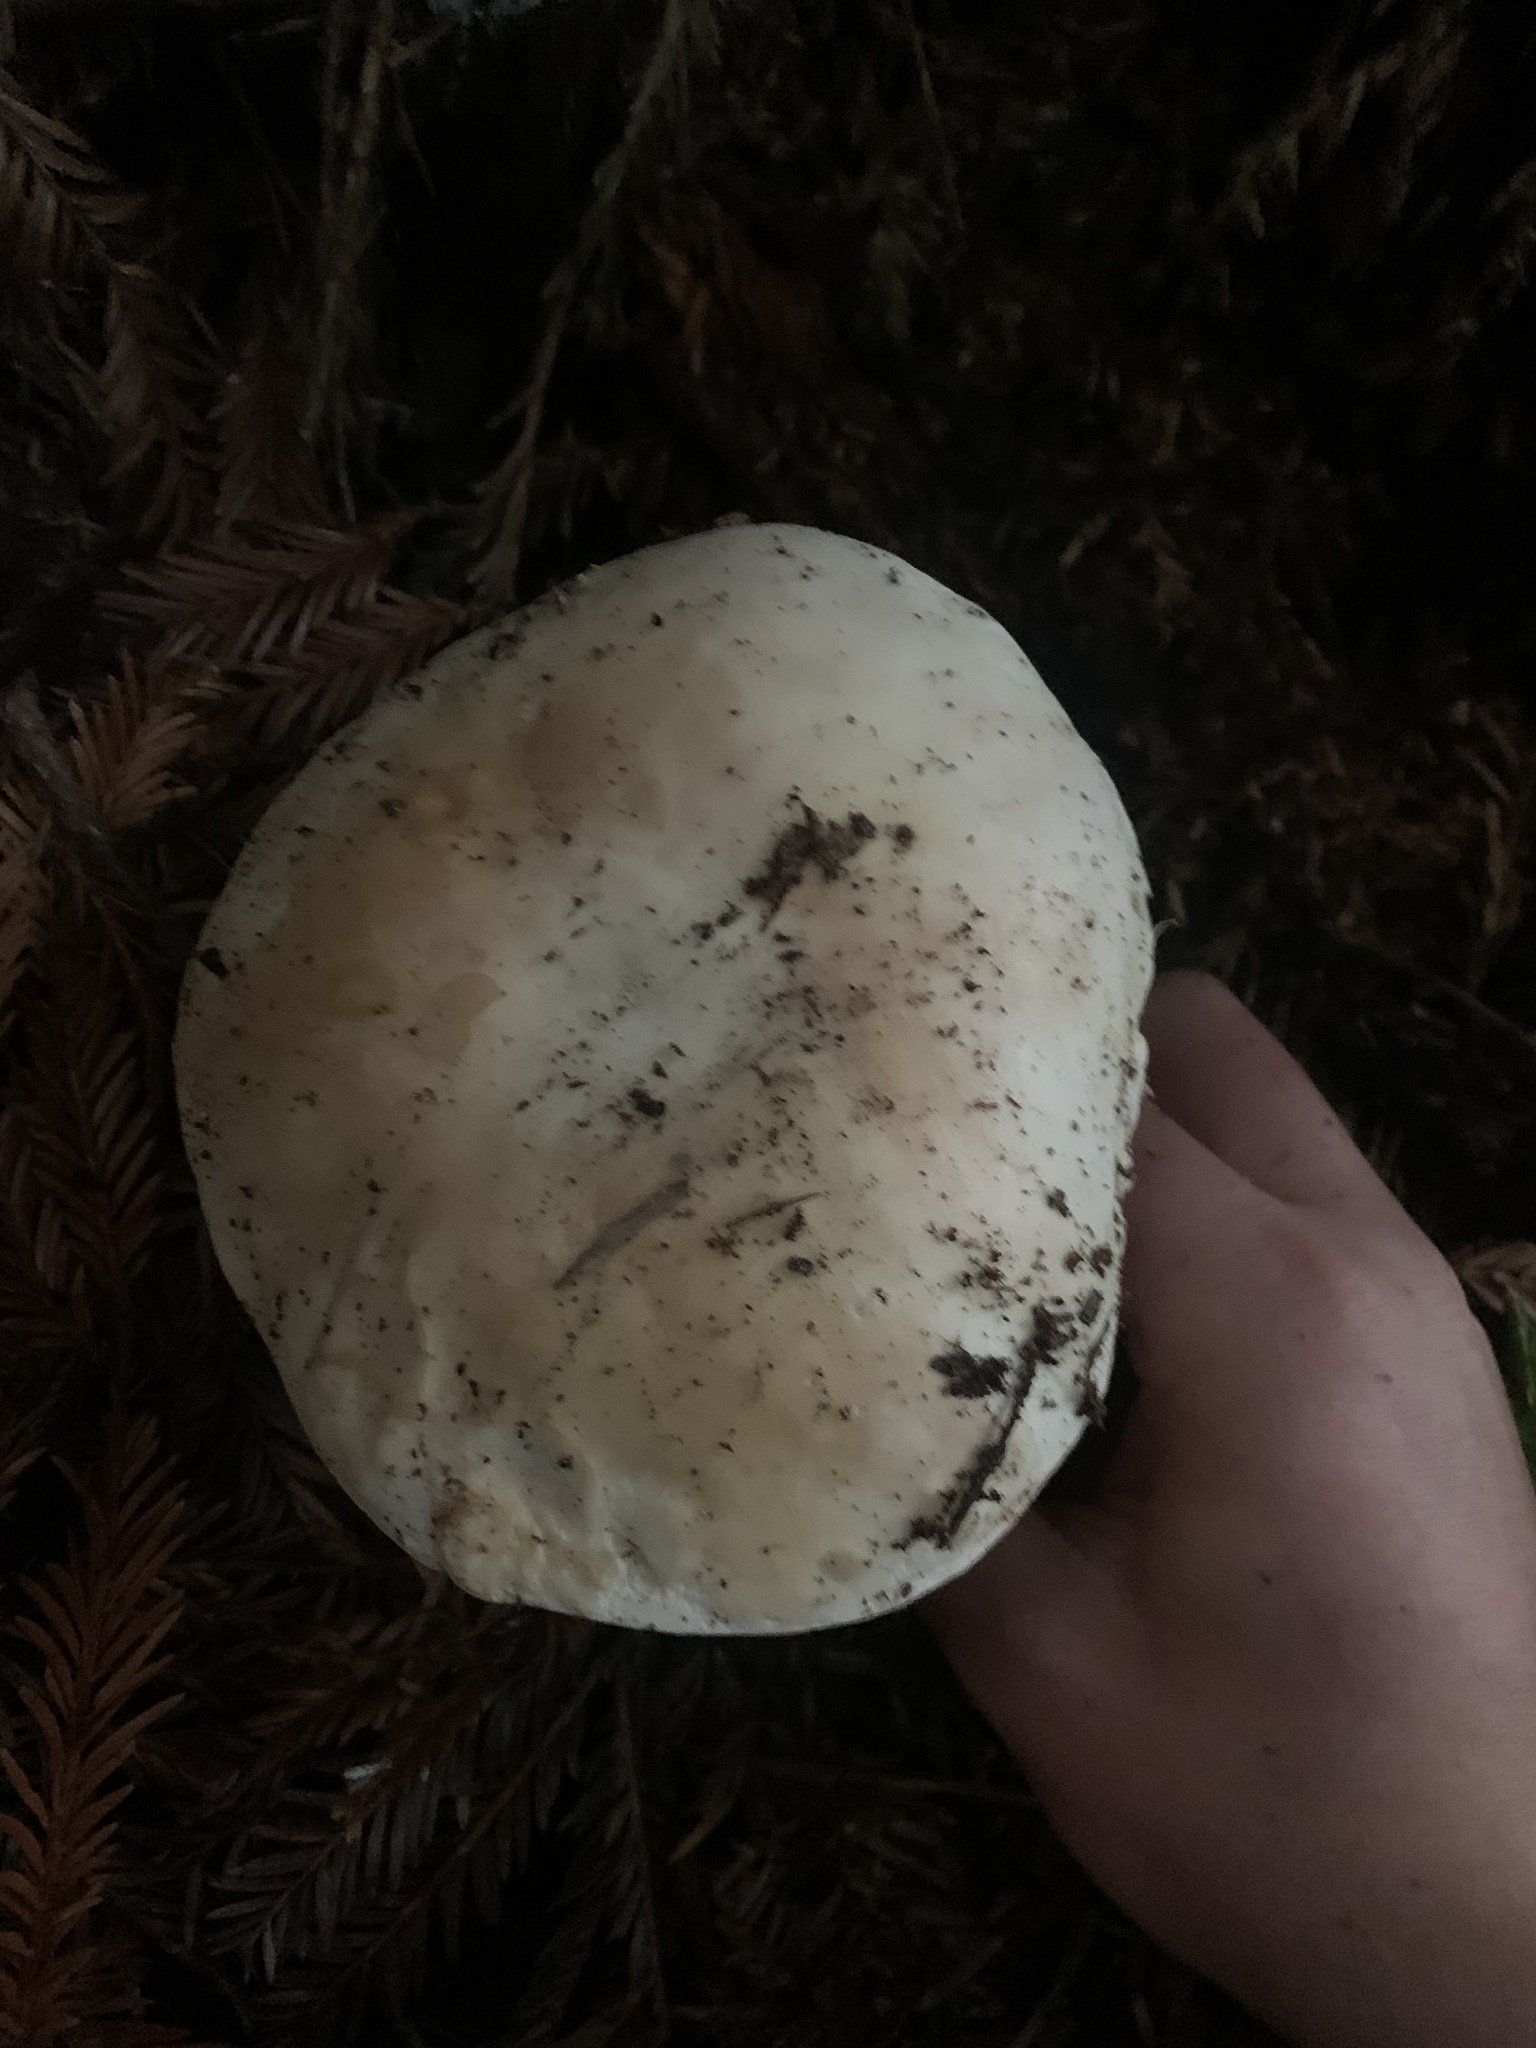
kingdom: Fungi
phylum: Basidiomycota
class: Agaricomycetes
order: Boletales
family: Boletaceae
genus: Boletus
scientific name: Boletus edulis
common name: Cep
